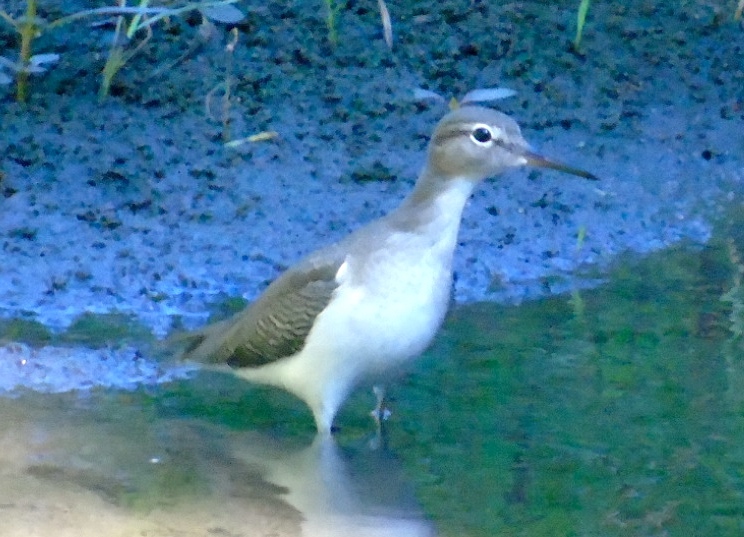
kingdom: Animalia
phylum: Chordata
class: Aves
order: Charadriiformes
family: Scolopacidae
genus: Actitis
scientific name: Actitis macularius
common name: Spotted sandpiper
